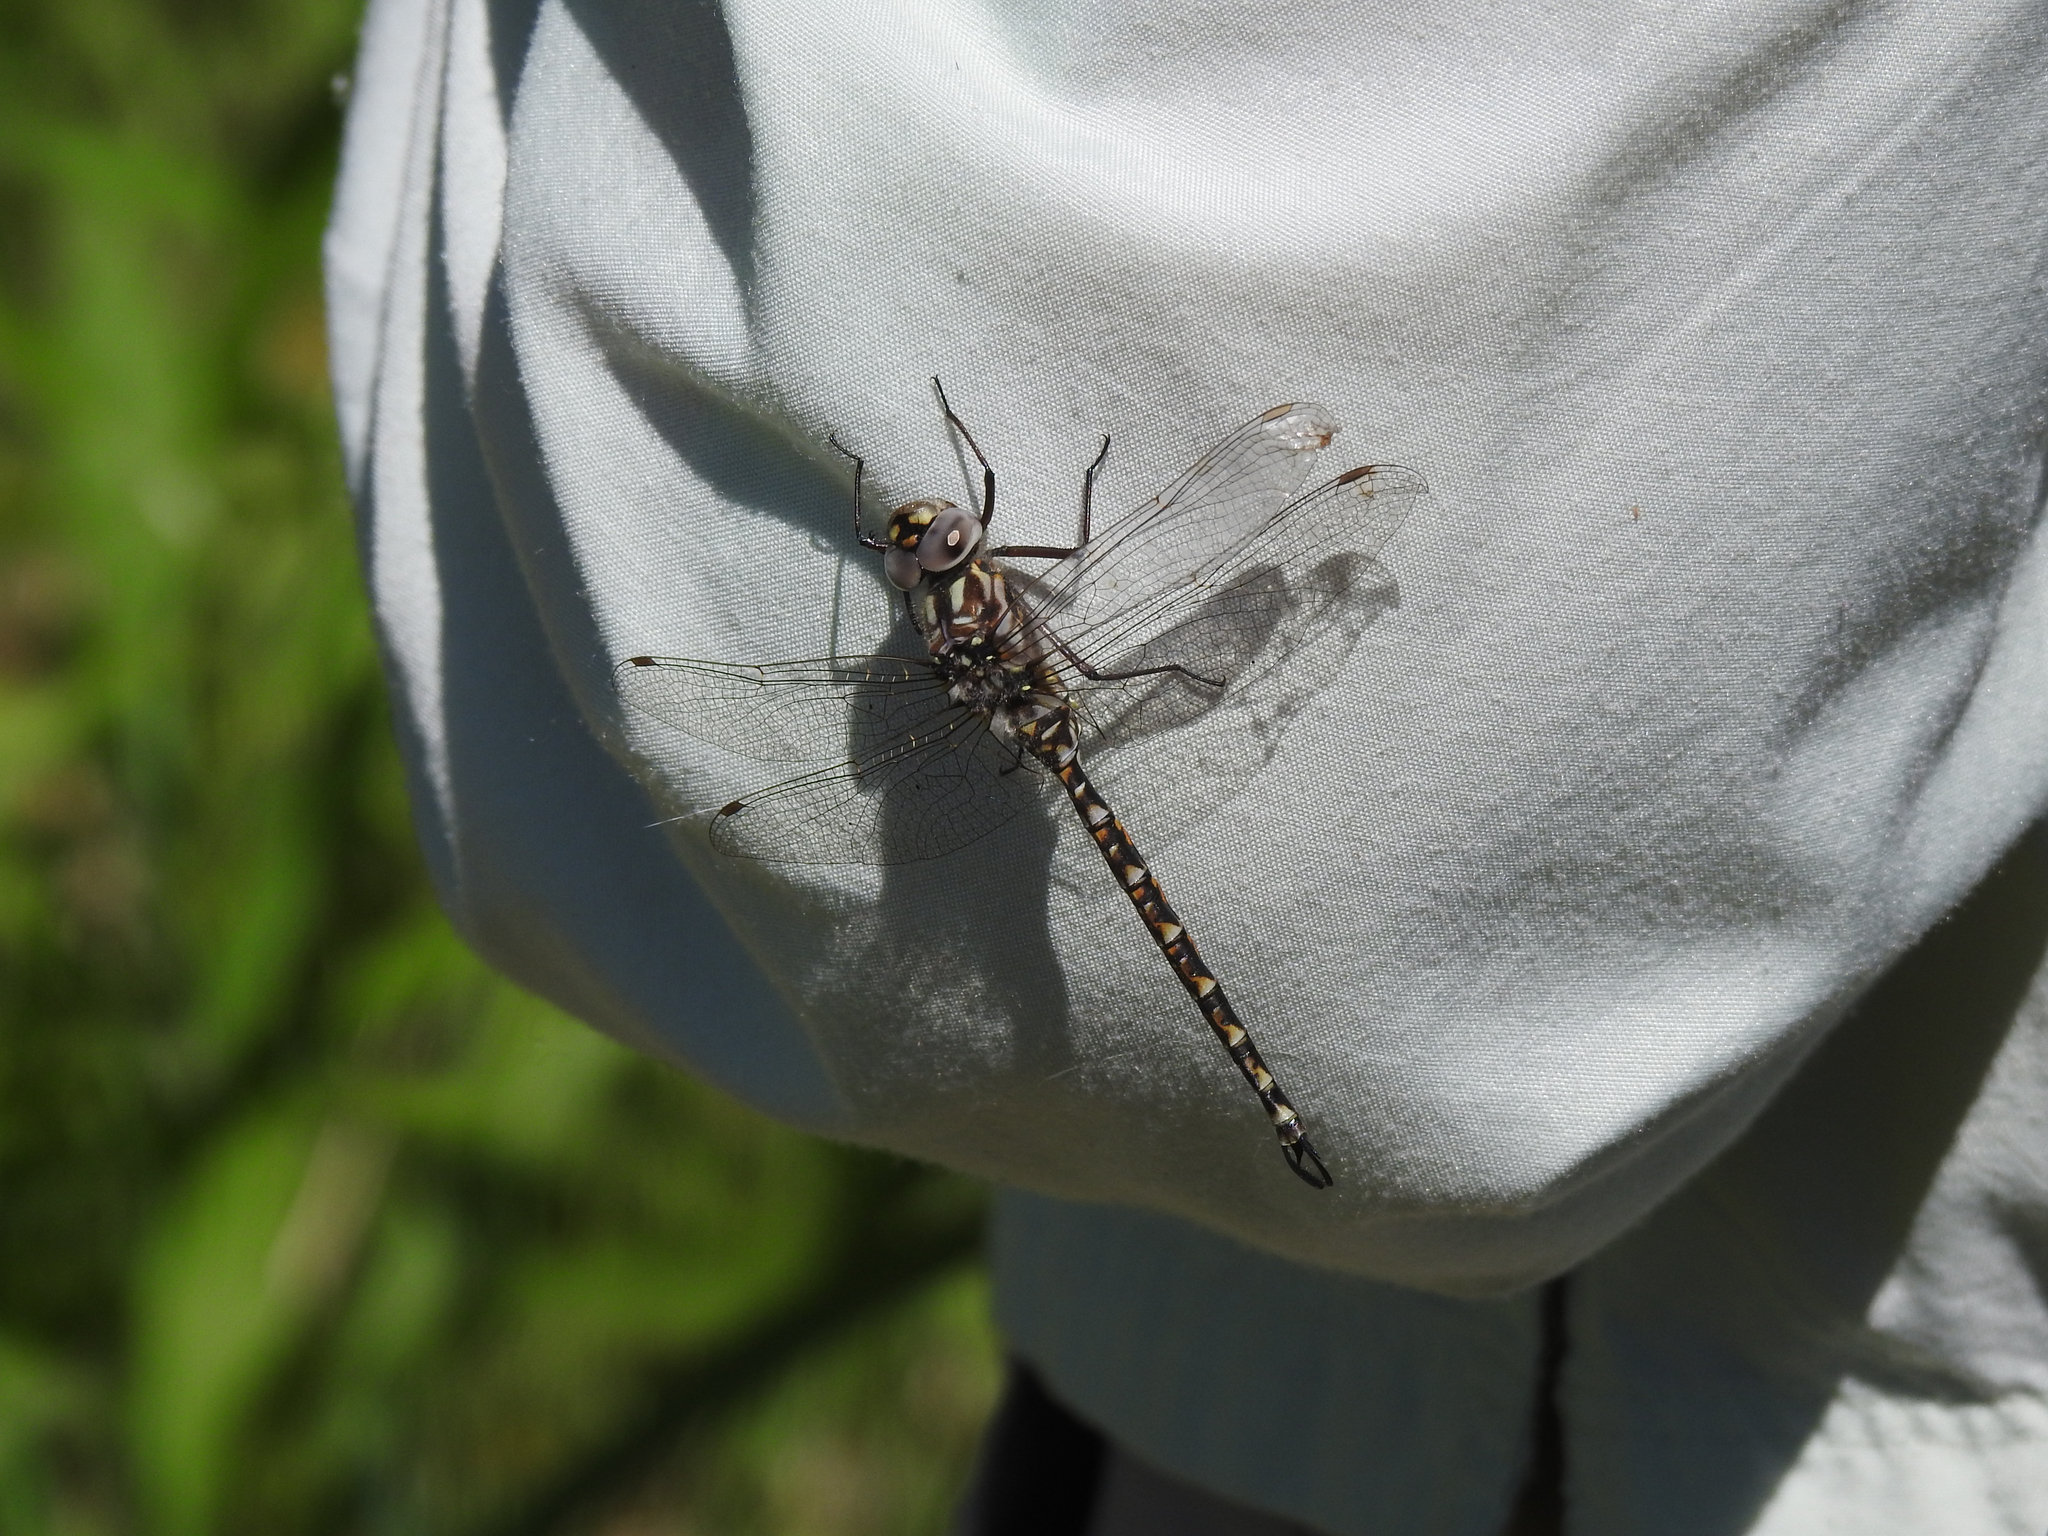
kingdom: Animalia
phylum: Arthropoda
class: Insecta
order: Odonata
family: Aeshnidae
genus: Gomphaeschna
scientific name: Gomphaeschna furcillata
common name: Harlequin darner
